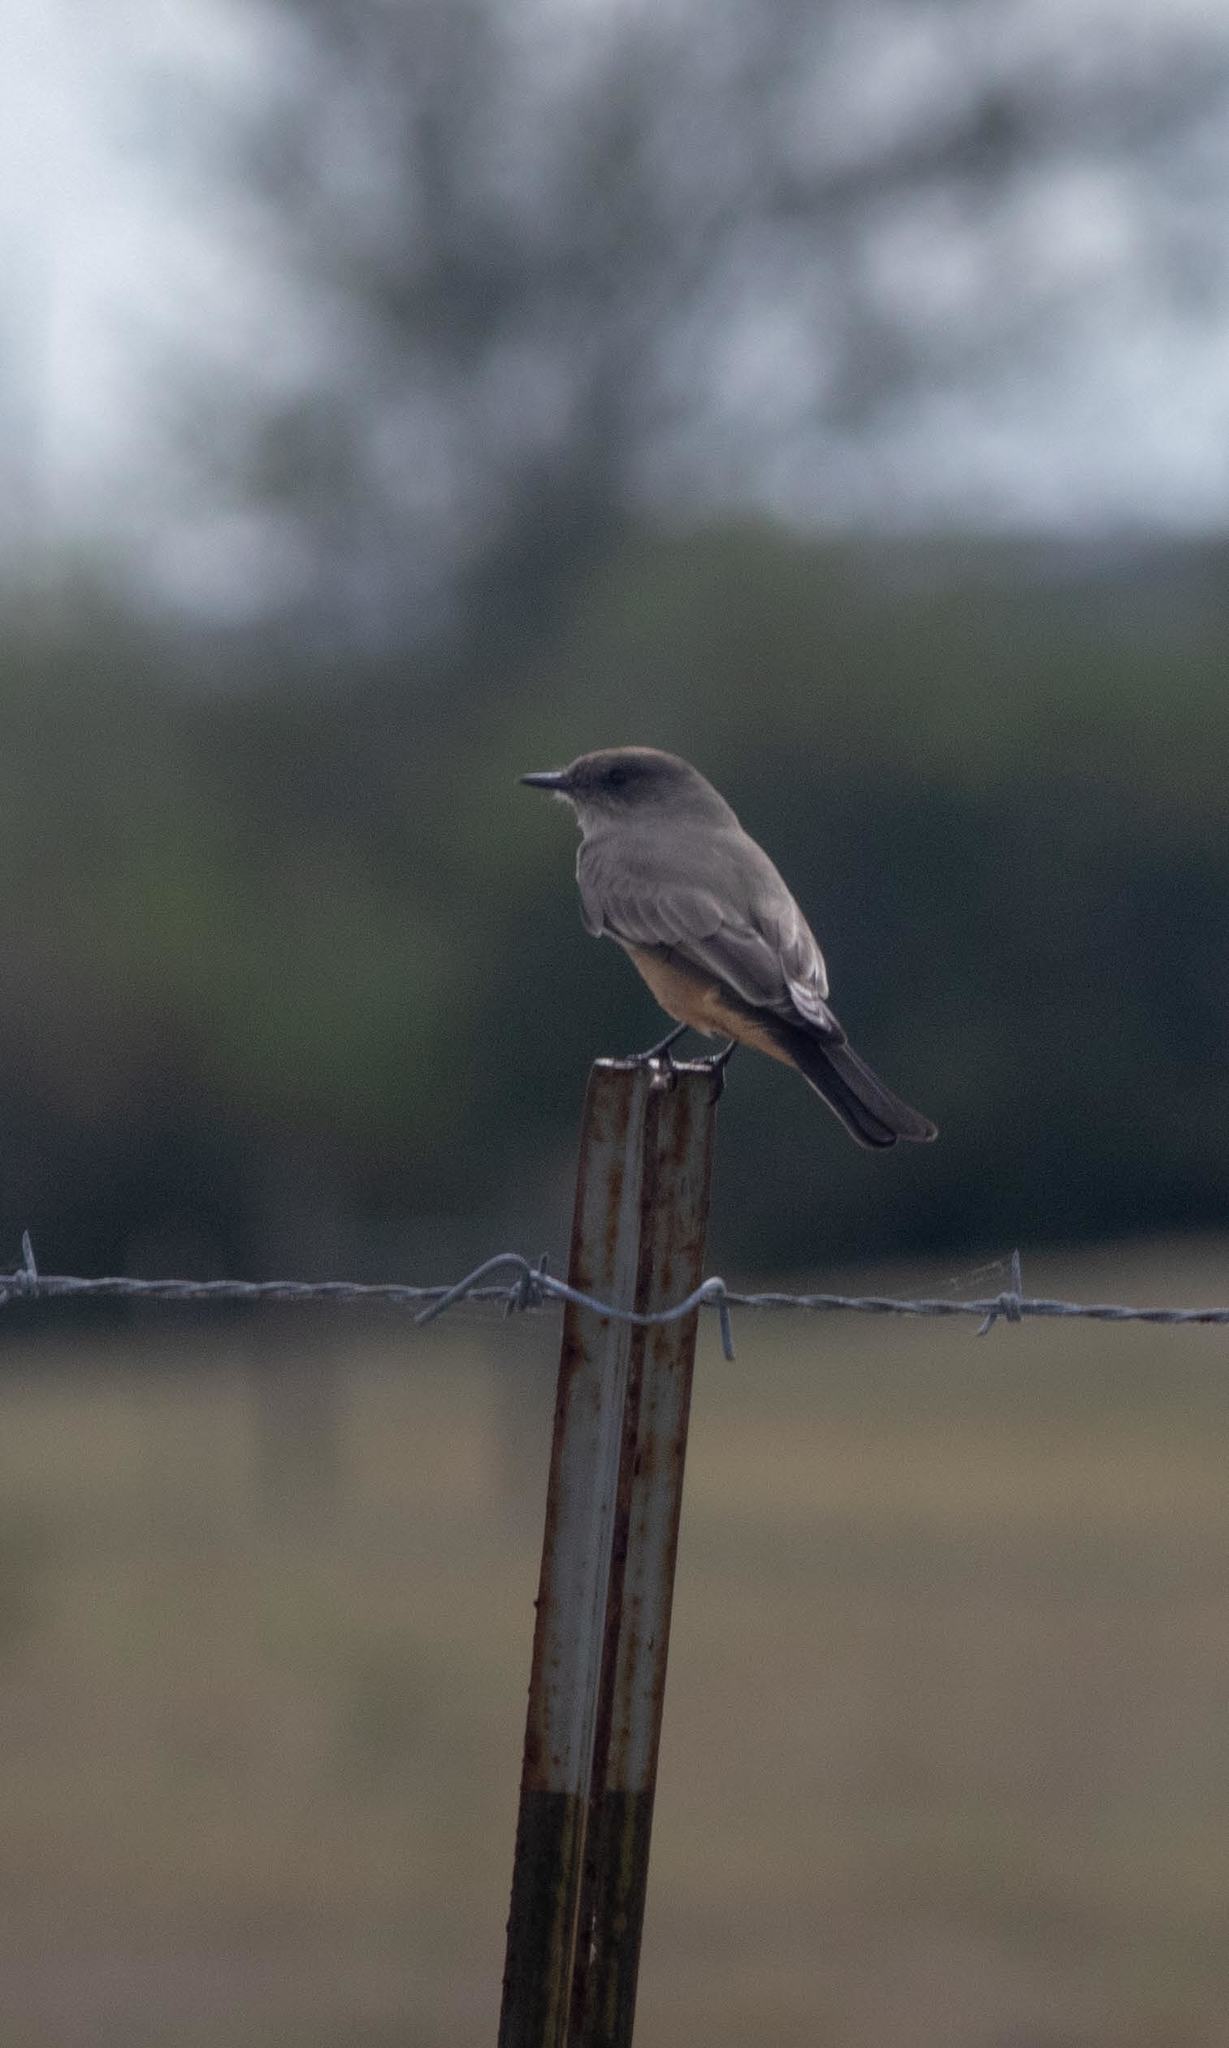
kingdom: Animalia
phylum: Chordata
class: Aves
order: Passeriformes
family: Tyrannidae
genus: Sayornis
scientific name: Sayornis saya
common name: Say's phoebe
